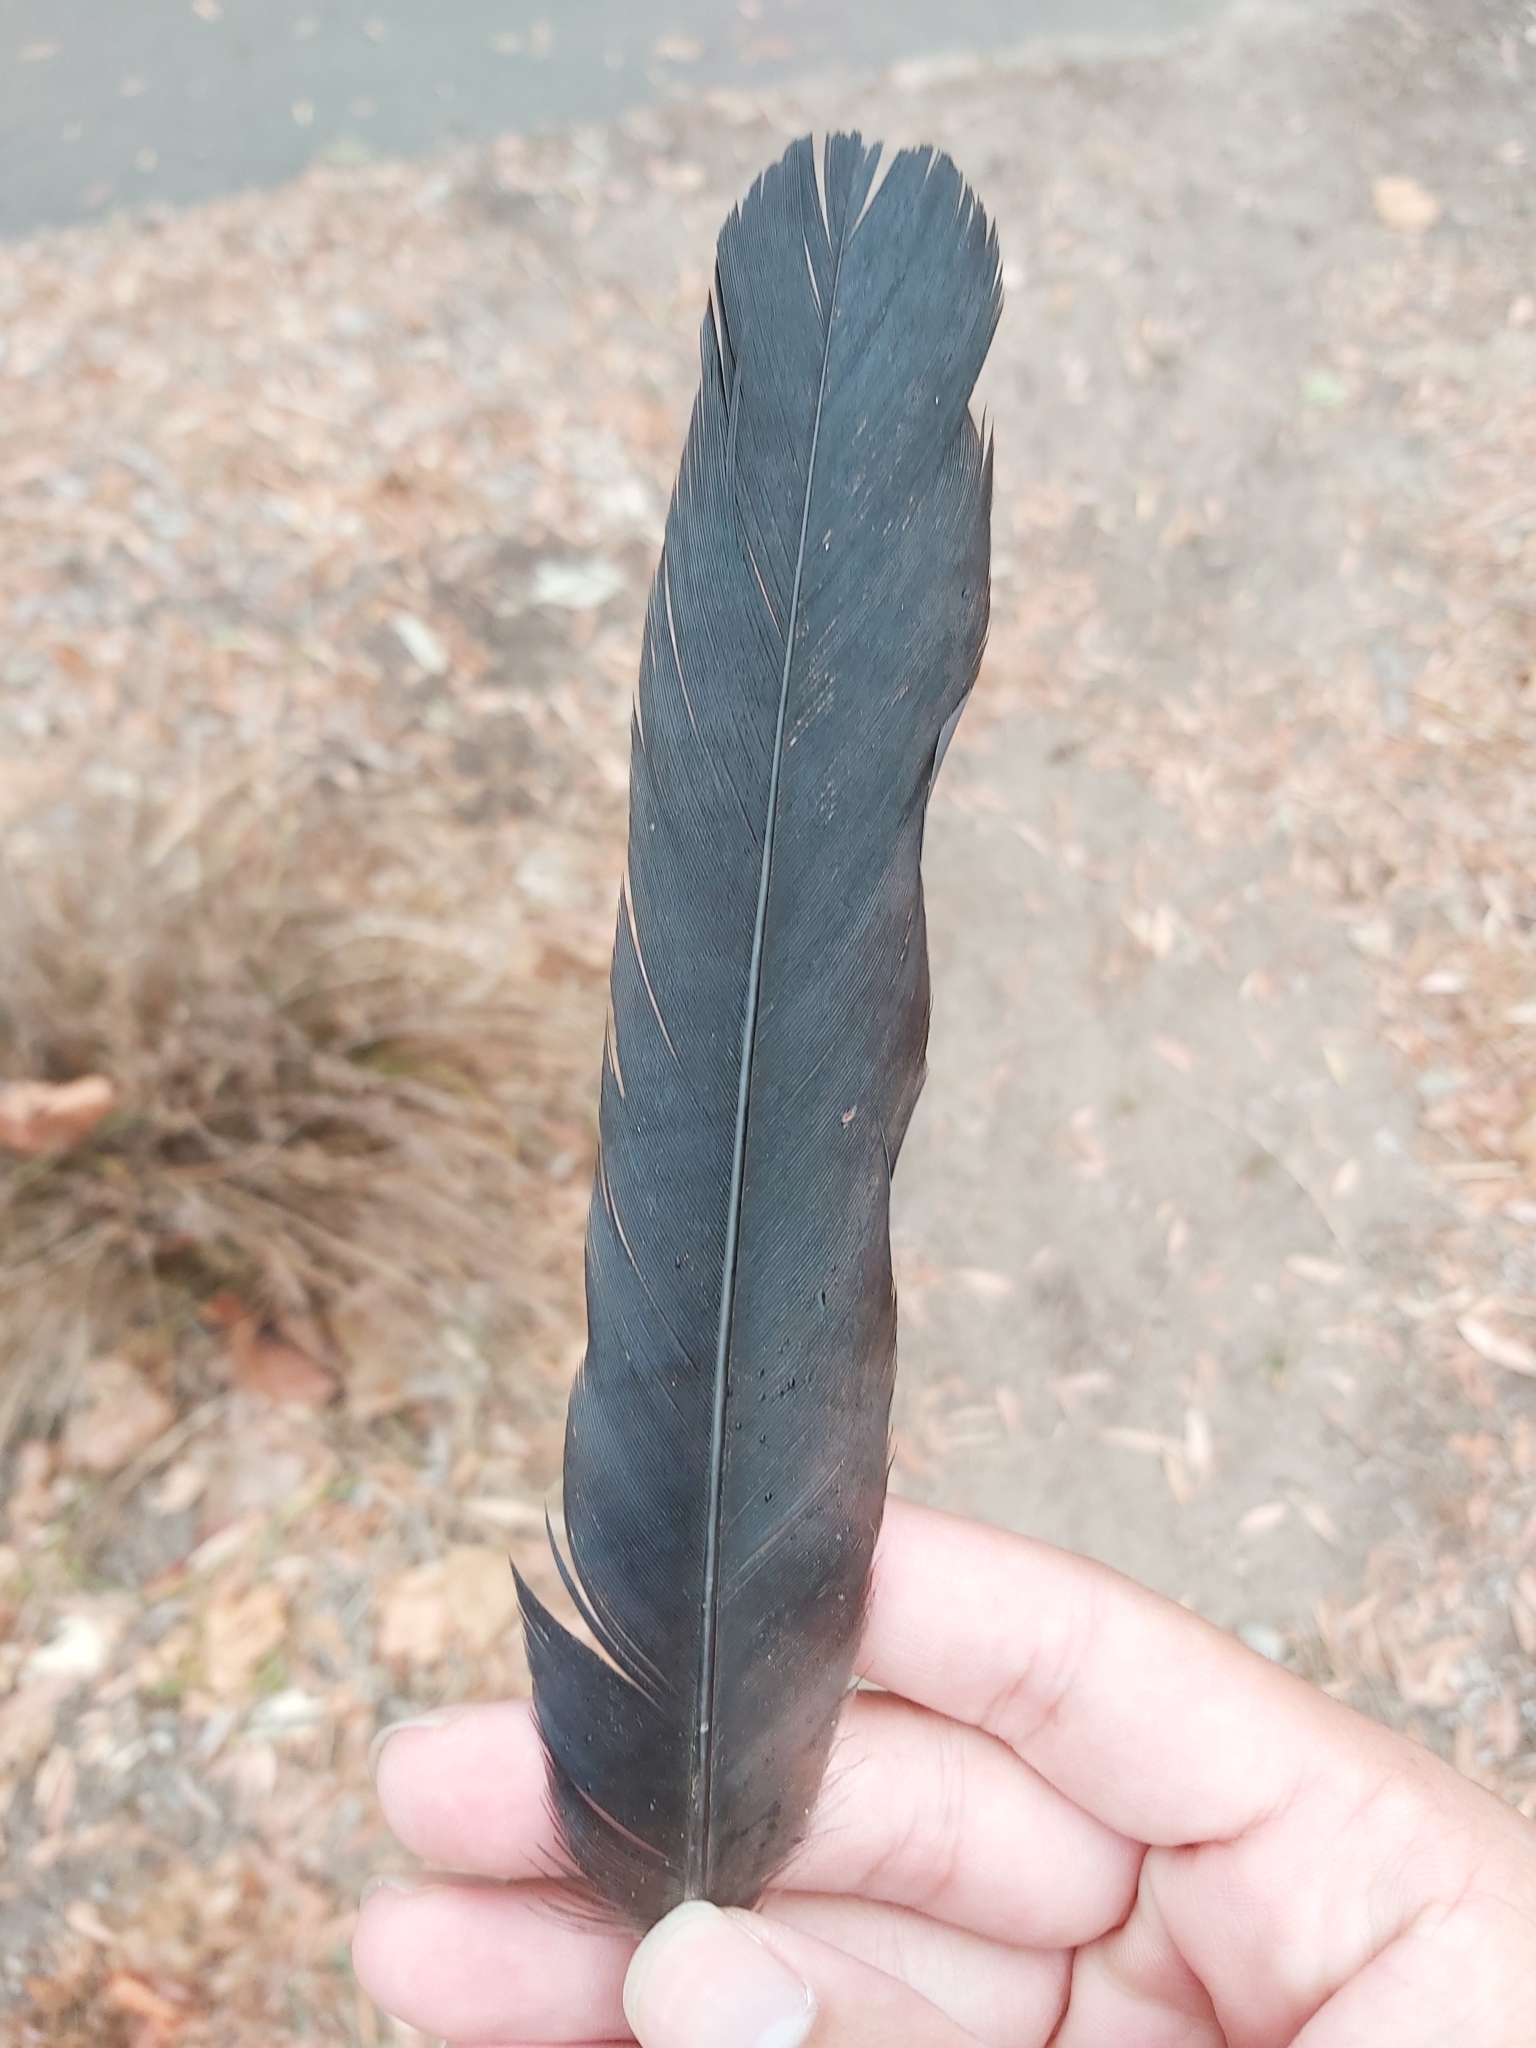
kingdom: Animalia
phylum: Chordata
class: Aves
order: Passeriformes
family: Corvidae
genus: Corvus
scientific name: Corvus coronoides
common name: Australian raven
